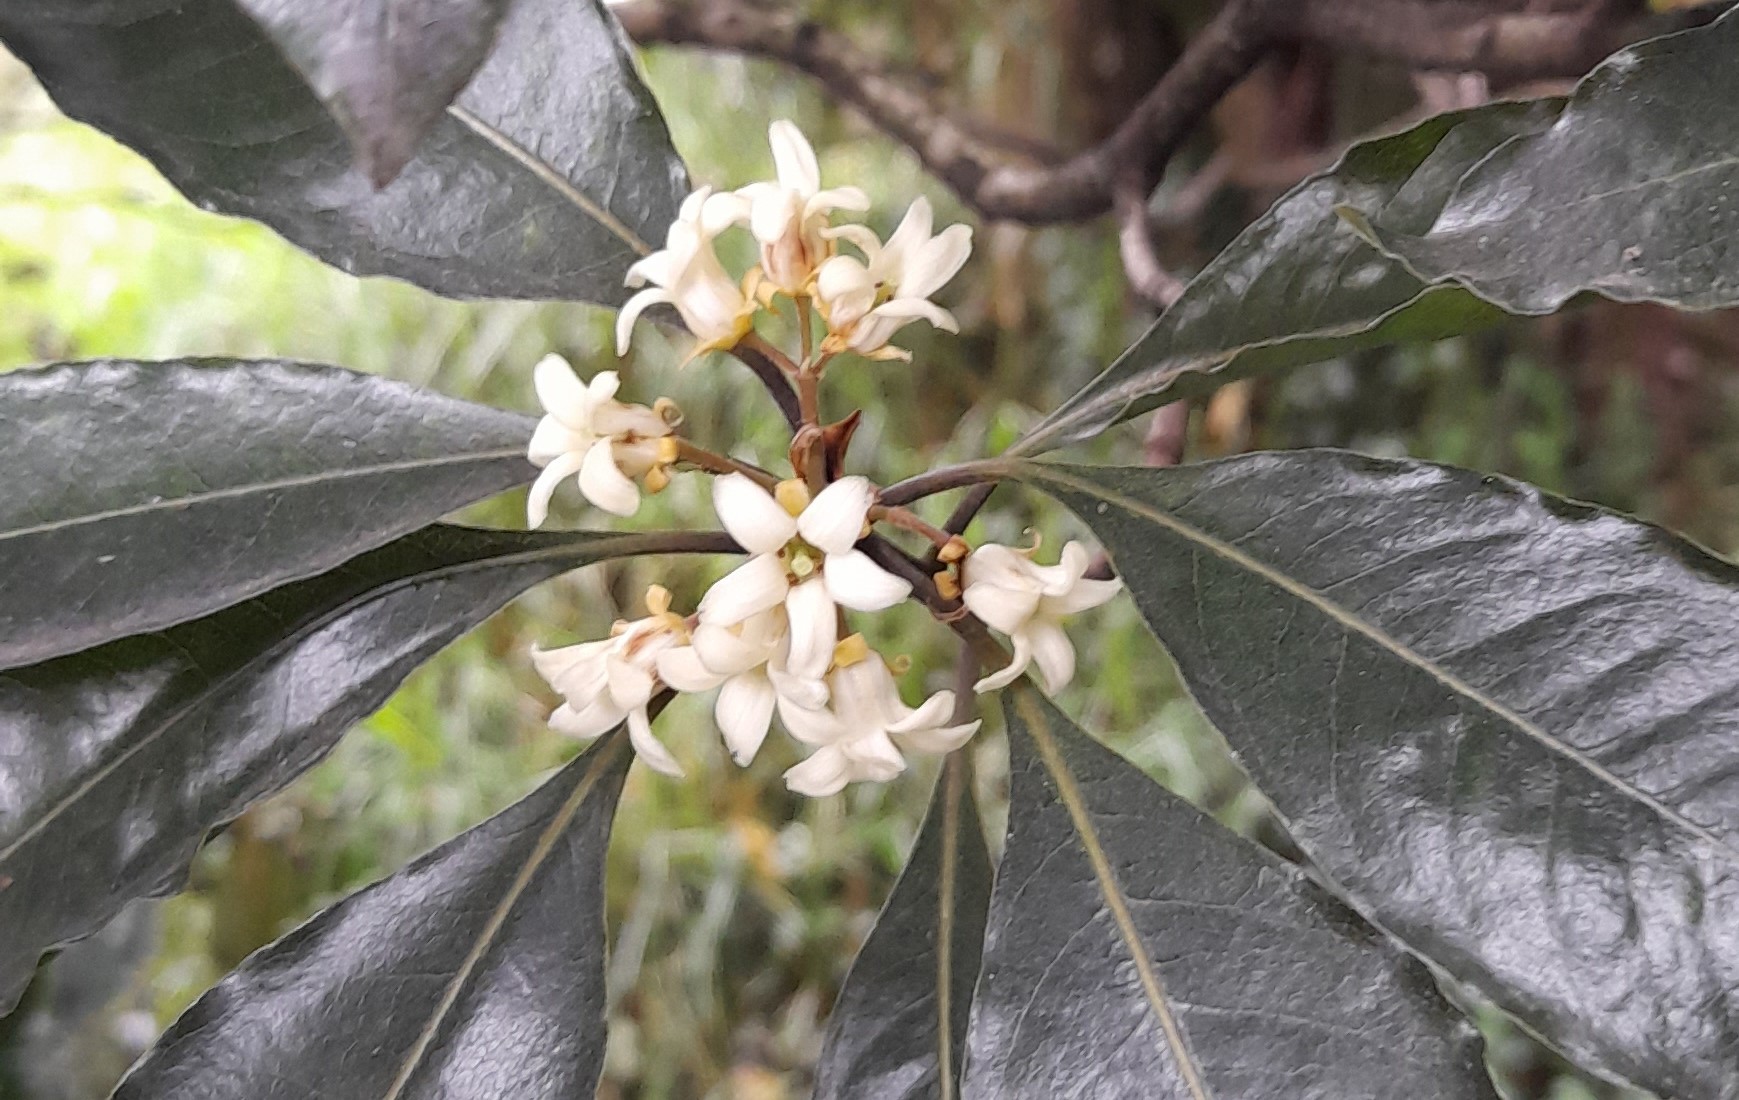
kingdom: Plantae
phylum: Tracheophyta
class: Magnoliopsida
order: Apiales
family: Pittosporaceae
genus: Pittosporum
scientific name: Pittosporum undulatum
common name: Australian cheesewood
